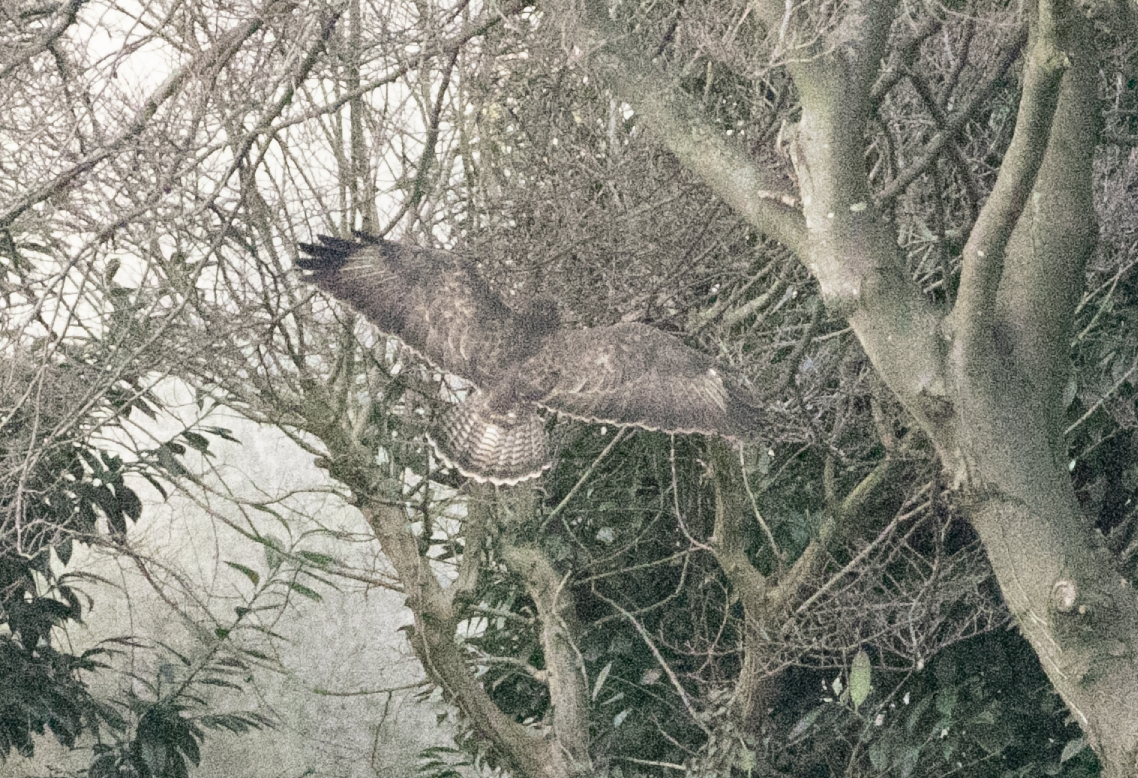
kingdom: Animalia
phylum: Chordata
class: Aves
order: Accipitriformes
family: Accipitridae
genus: Buteo
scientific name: Buteo buteo
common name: Common buzzard
